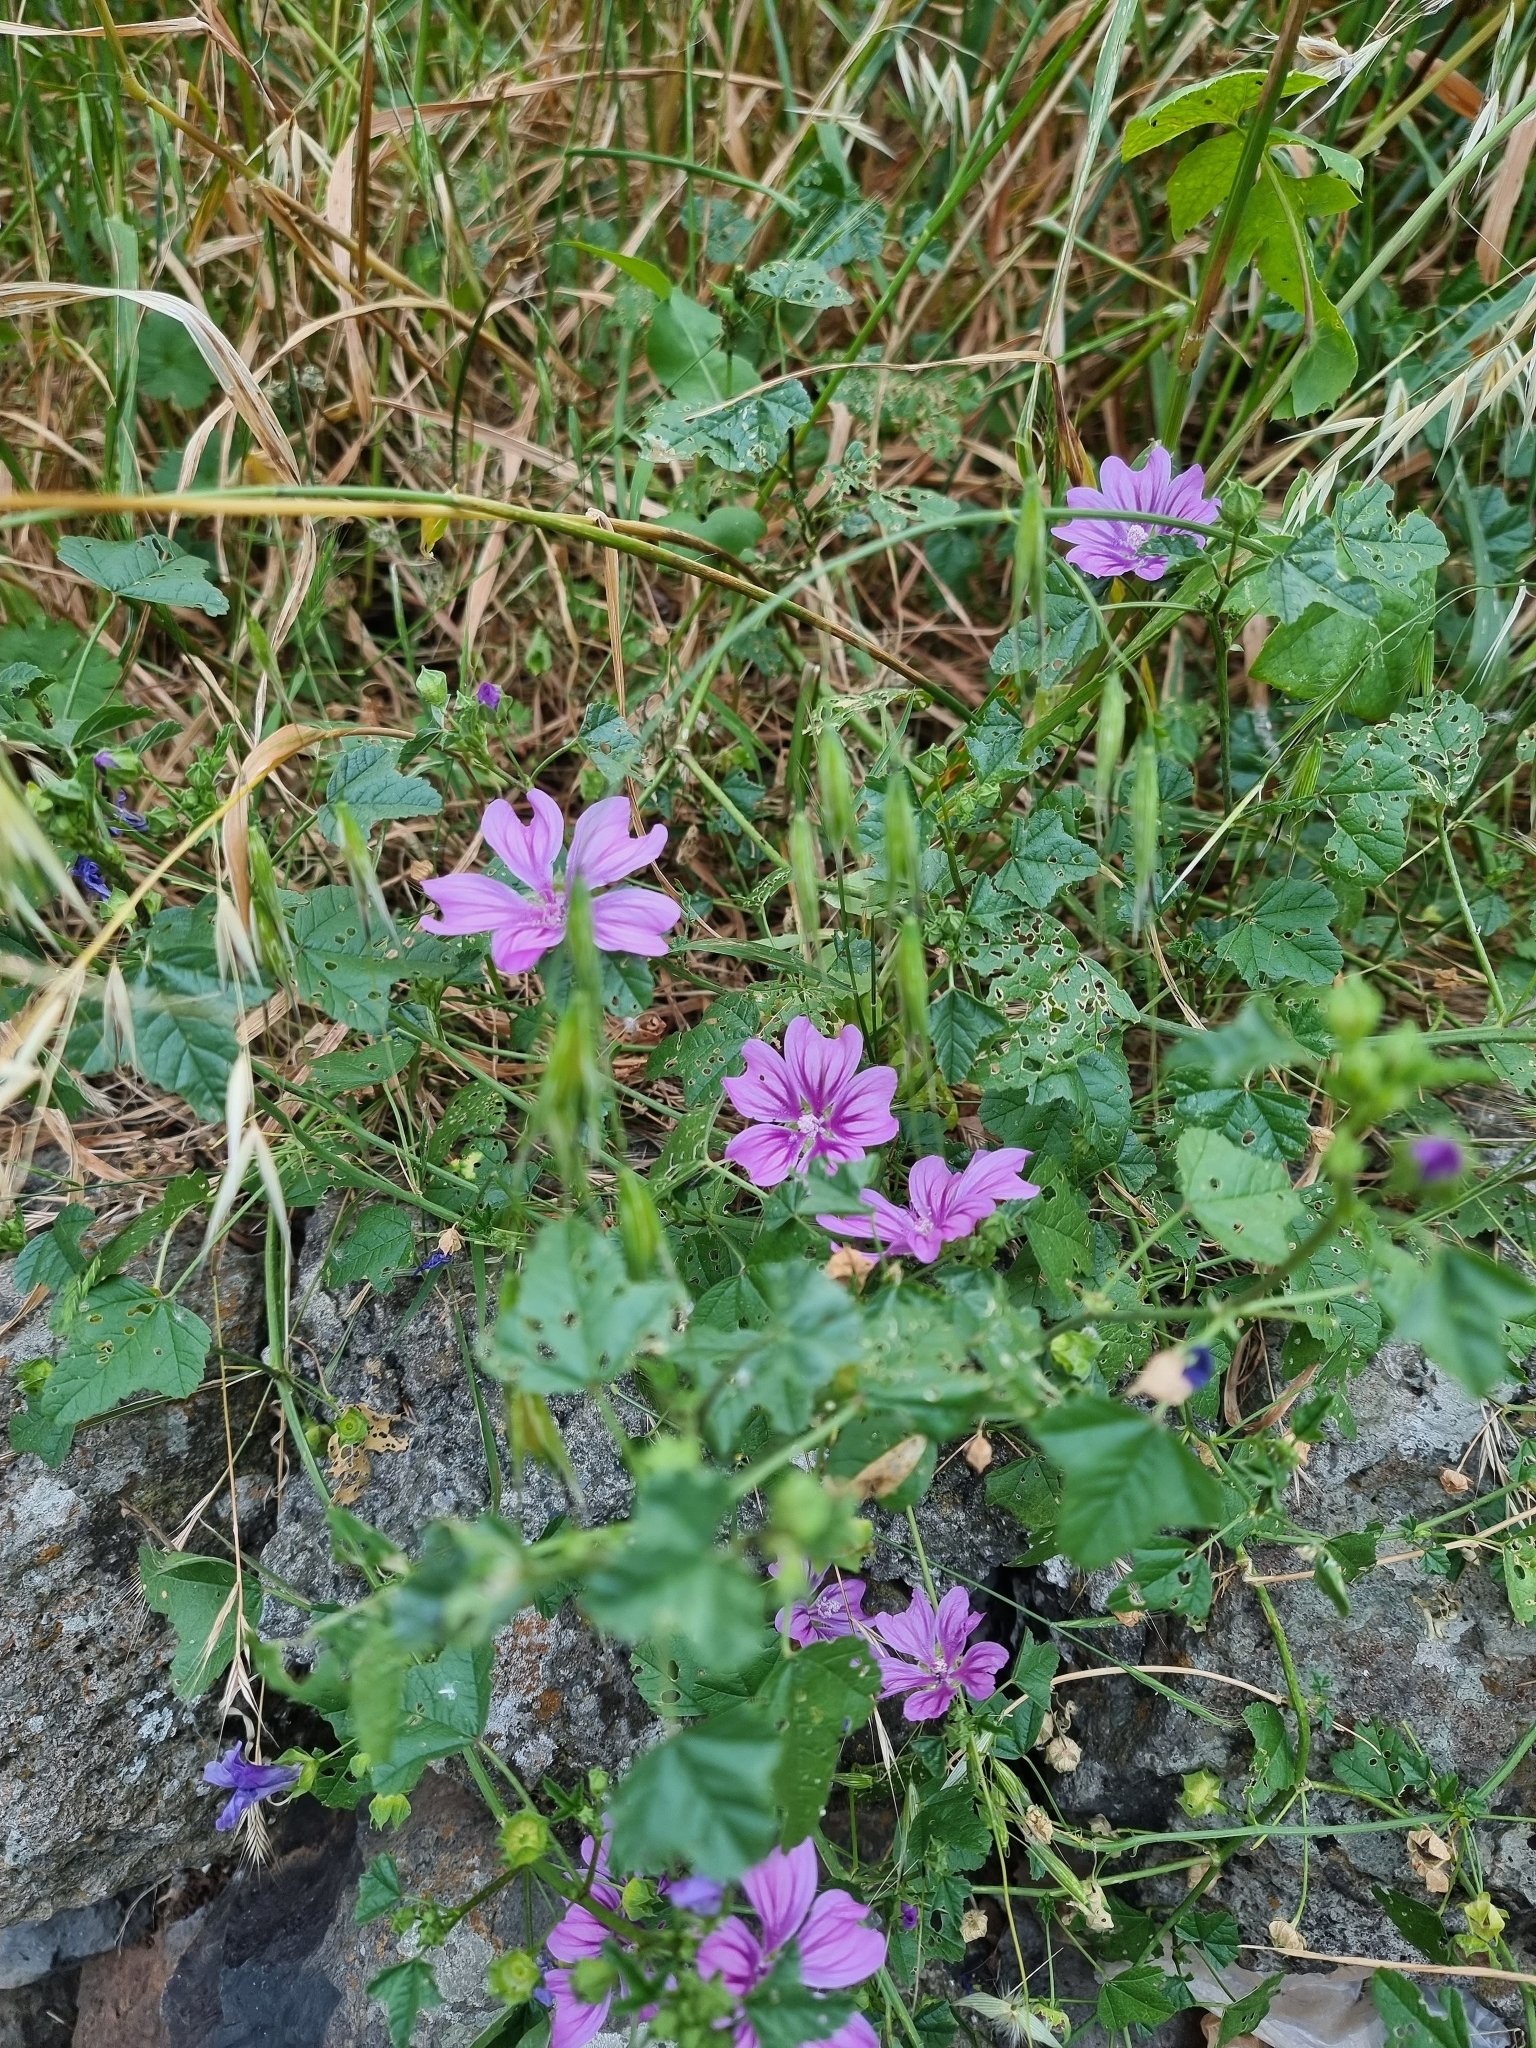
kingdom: Plantae
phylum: Tracheophyta
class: Magnoliopsida
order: Malvales
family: Malvaceae
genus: Malva
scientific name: Malva sylvestris
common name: Common mallow
